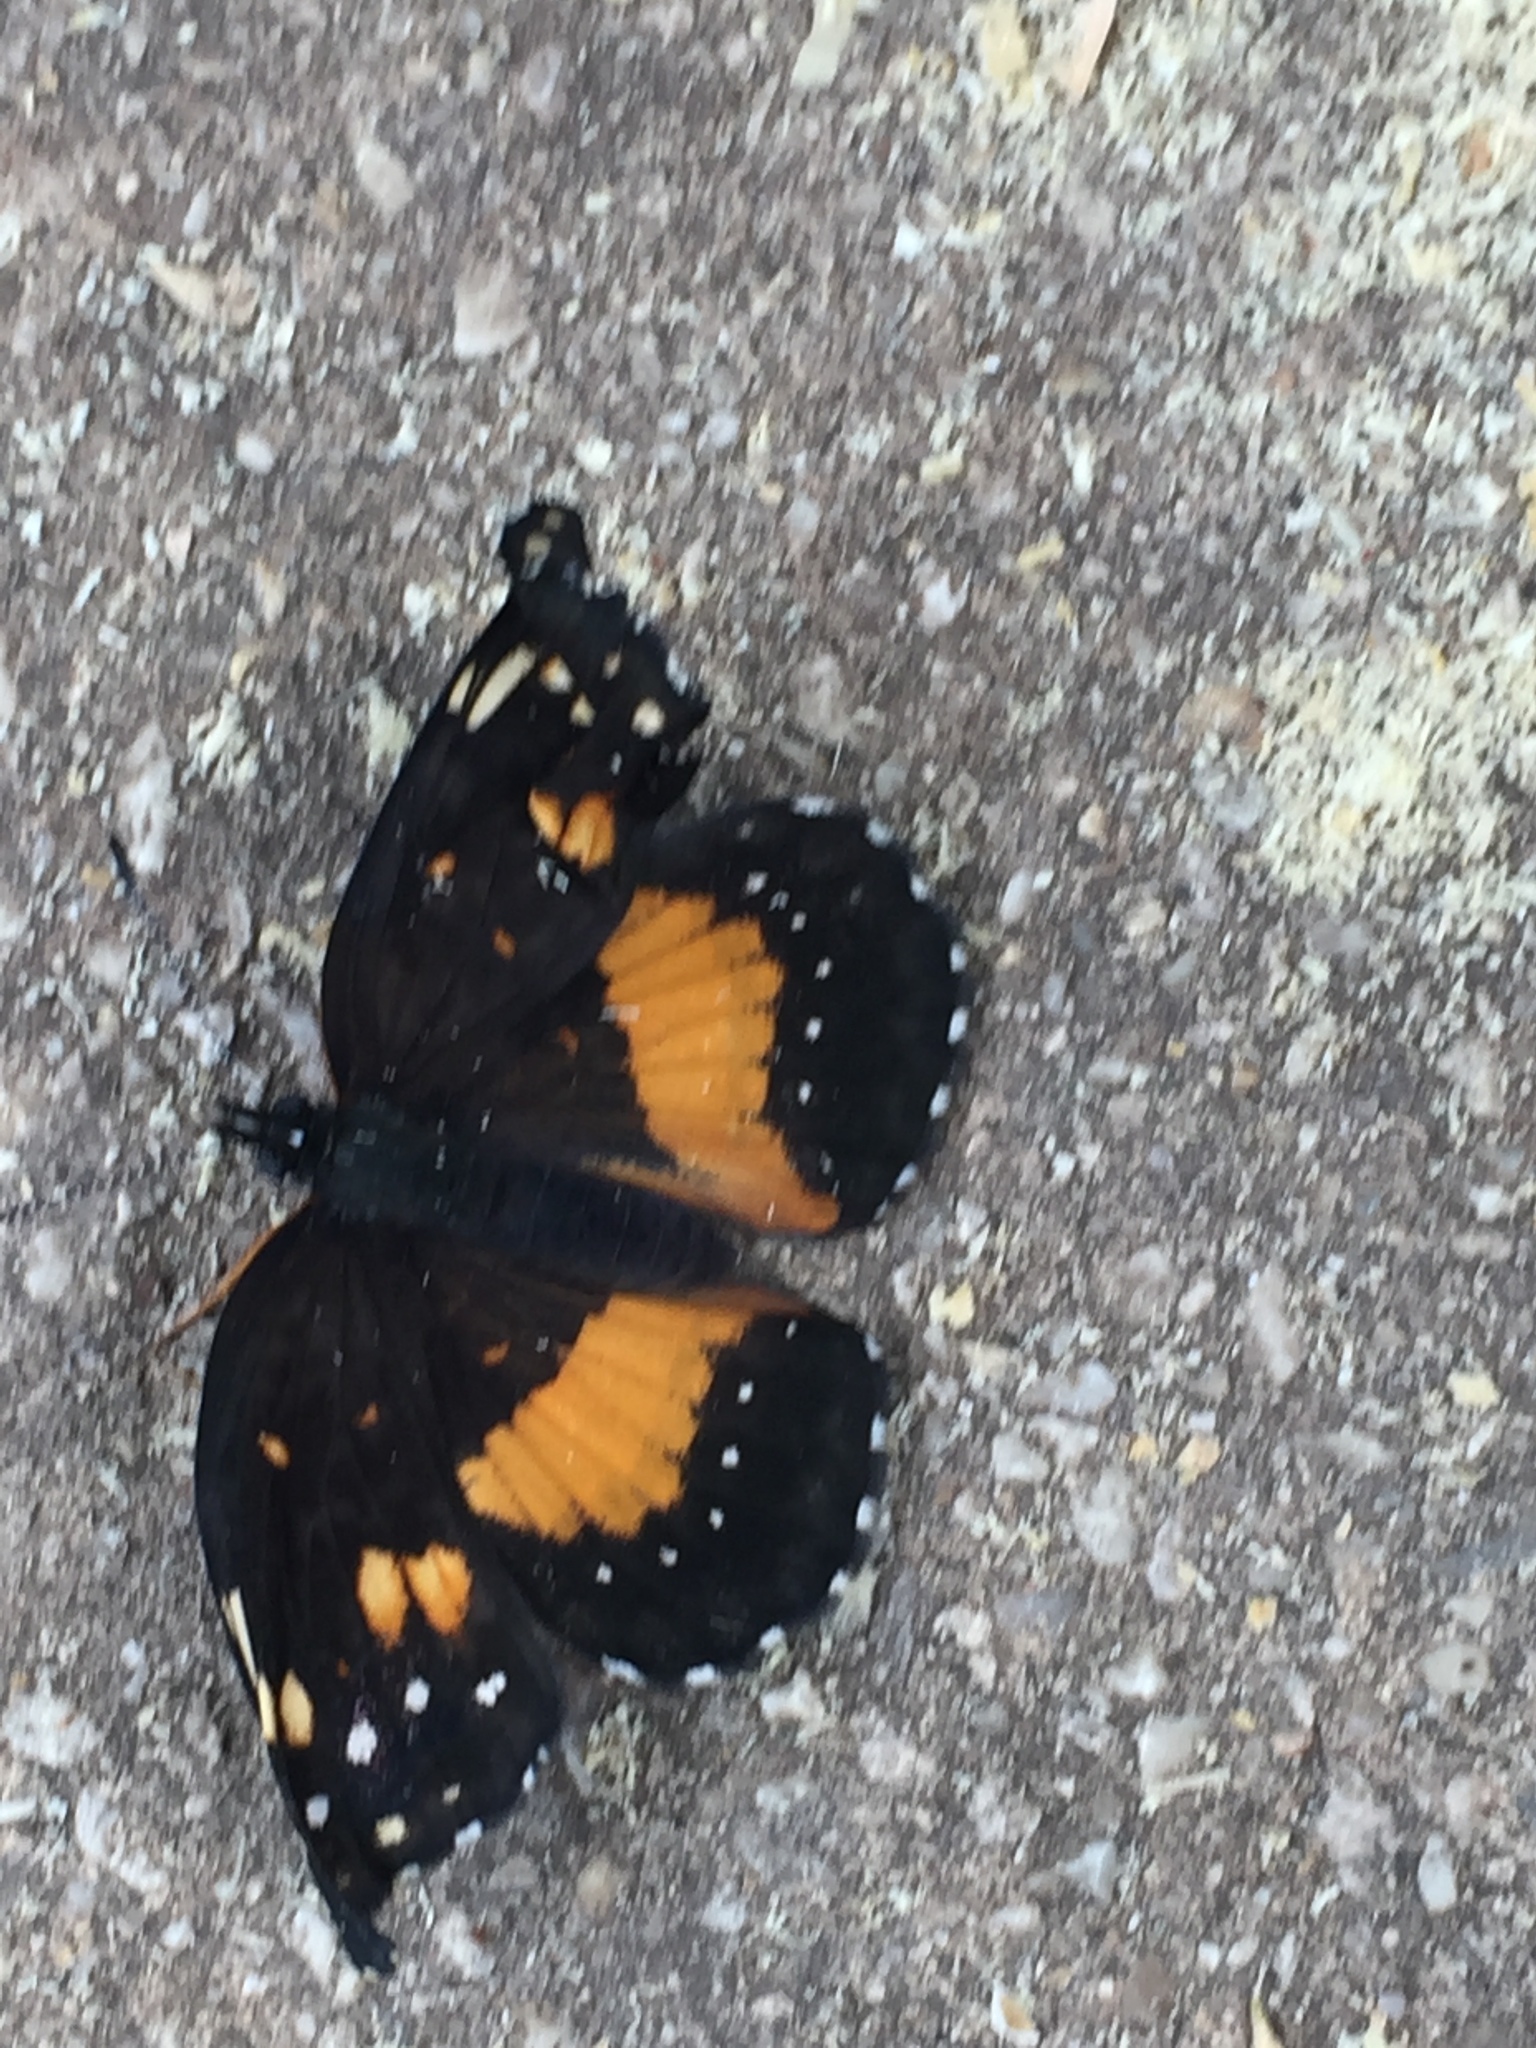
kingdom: Animalia
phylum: Arthropoda
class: Insecta
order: Lepidoptera
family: Nymphalidae
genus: Chlosyne
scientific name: Chlosyne lacinia
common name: Bordered patch
